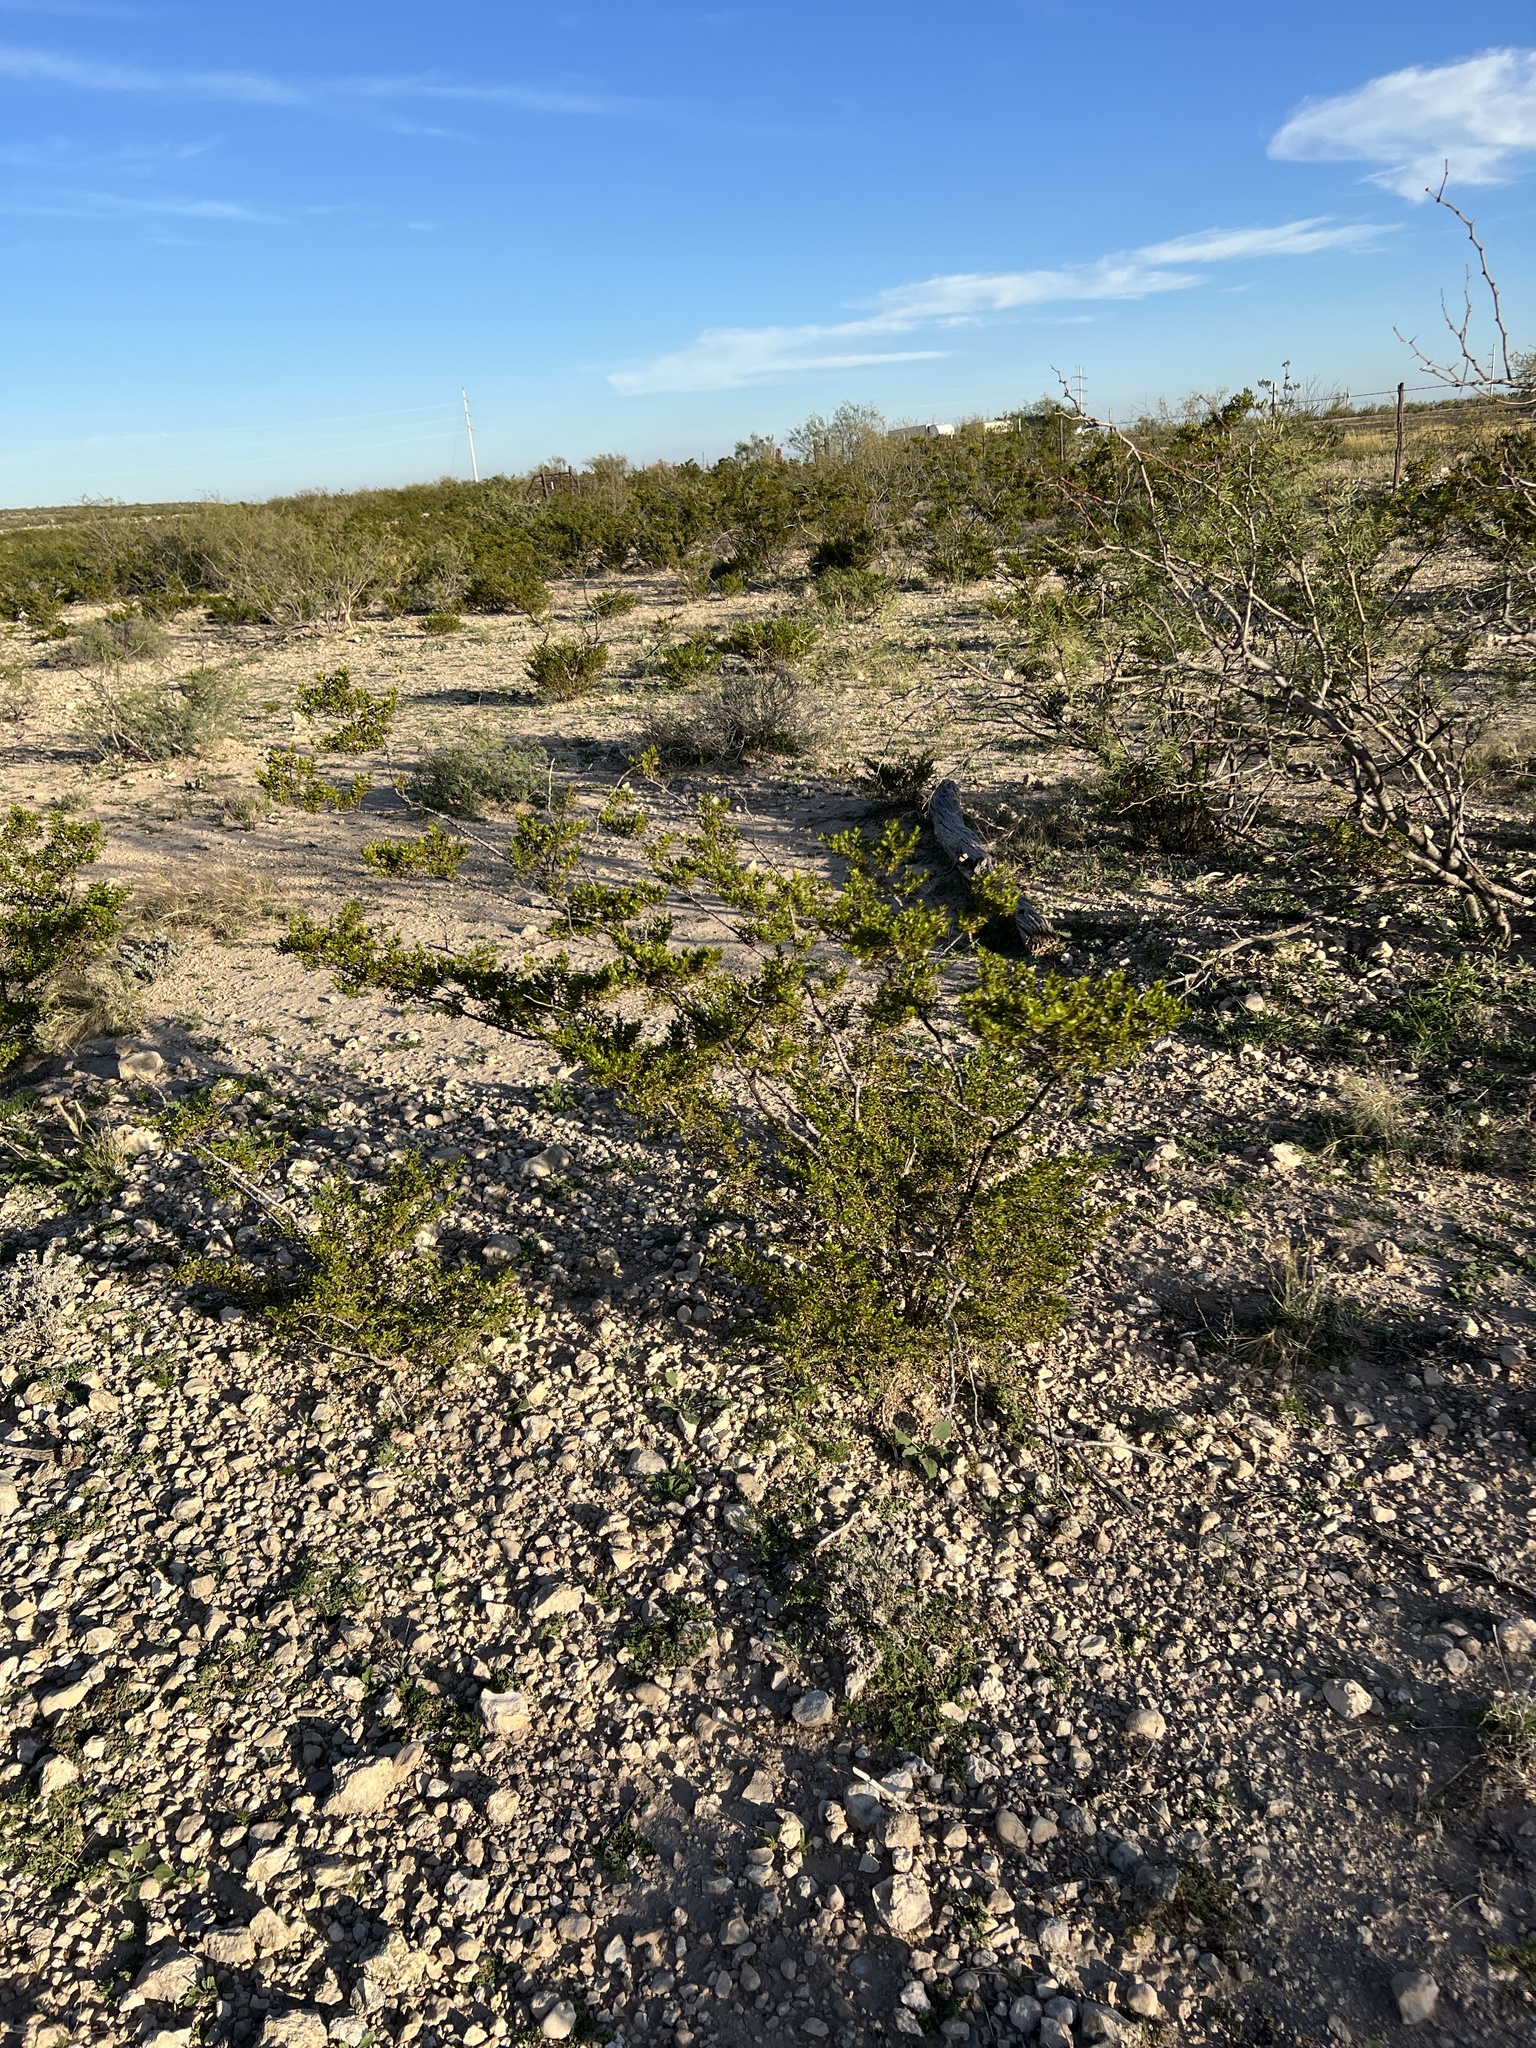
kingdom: Plantae
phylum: Tracheophyta
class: Magnoliopsida
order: Zygophyllales
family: Zygophyllaceae
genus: Larrea
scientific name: Larrea tridentata
